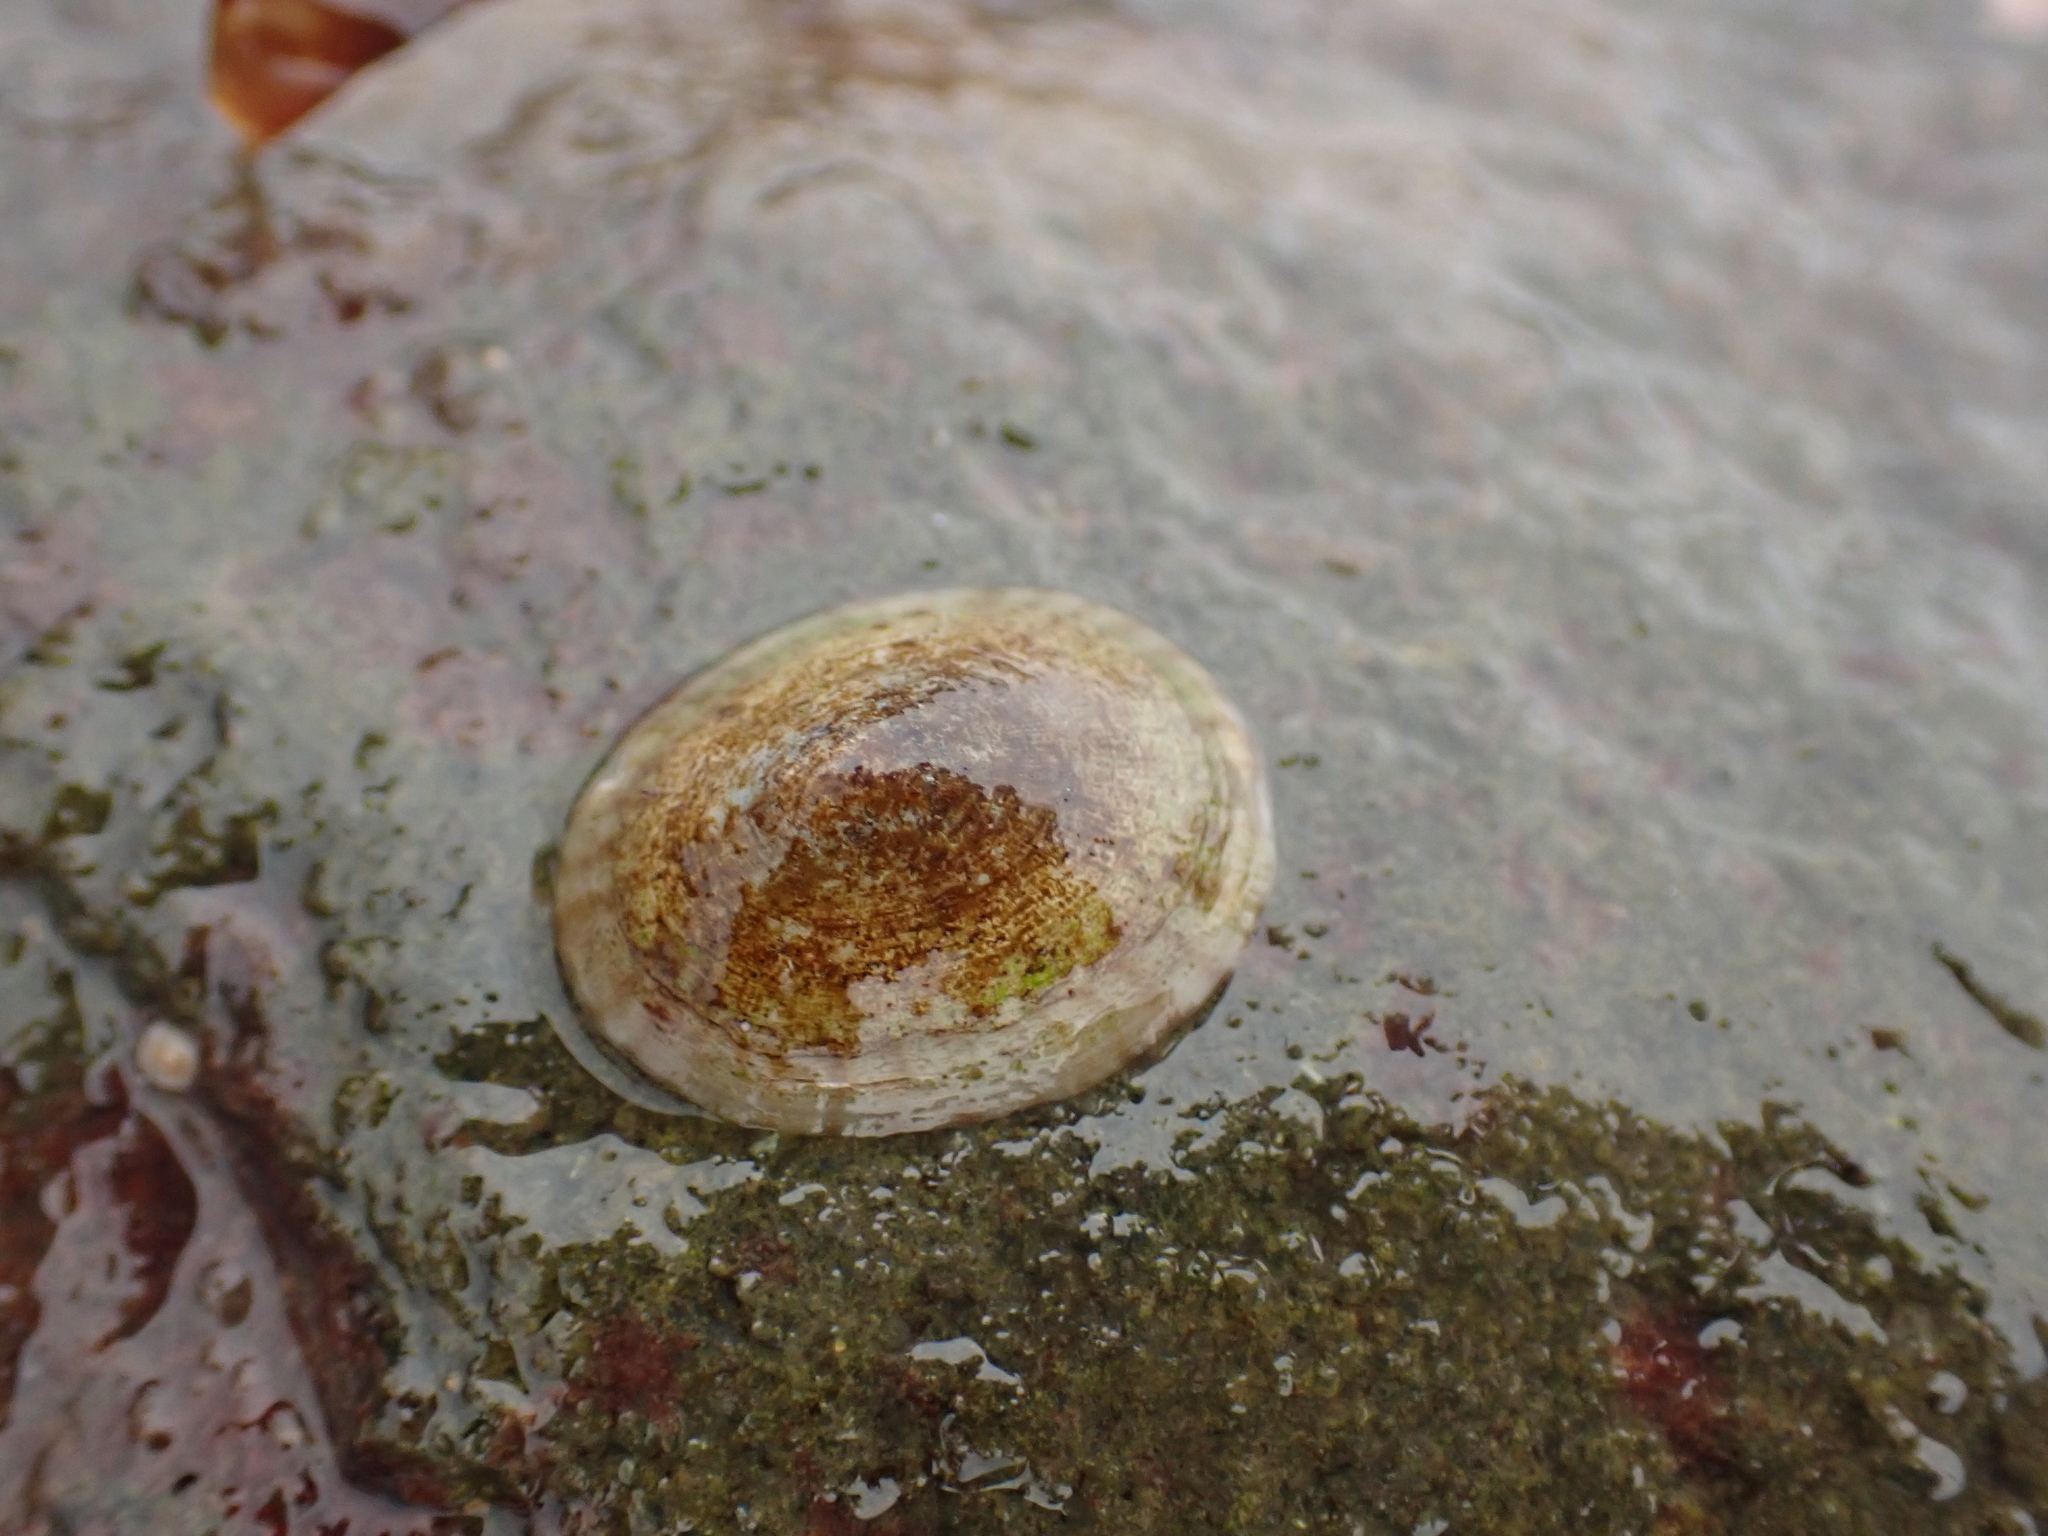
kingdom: Animalia
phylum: Mollusca
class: Gastropoda
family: Lottiidae
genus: Testudinalia
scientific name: Testudinalia testudinalis
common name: Common tortoiseshell limpet
